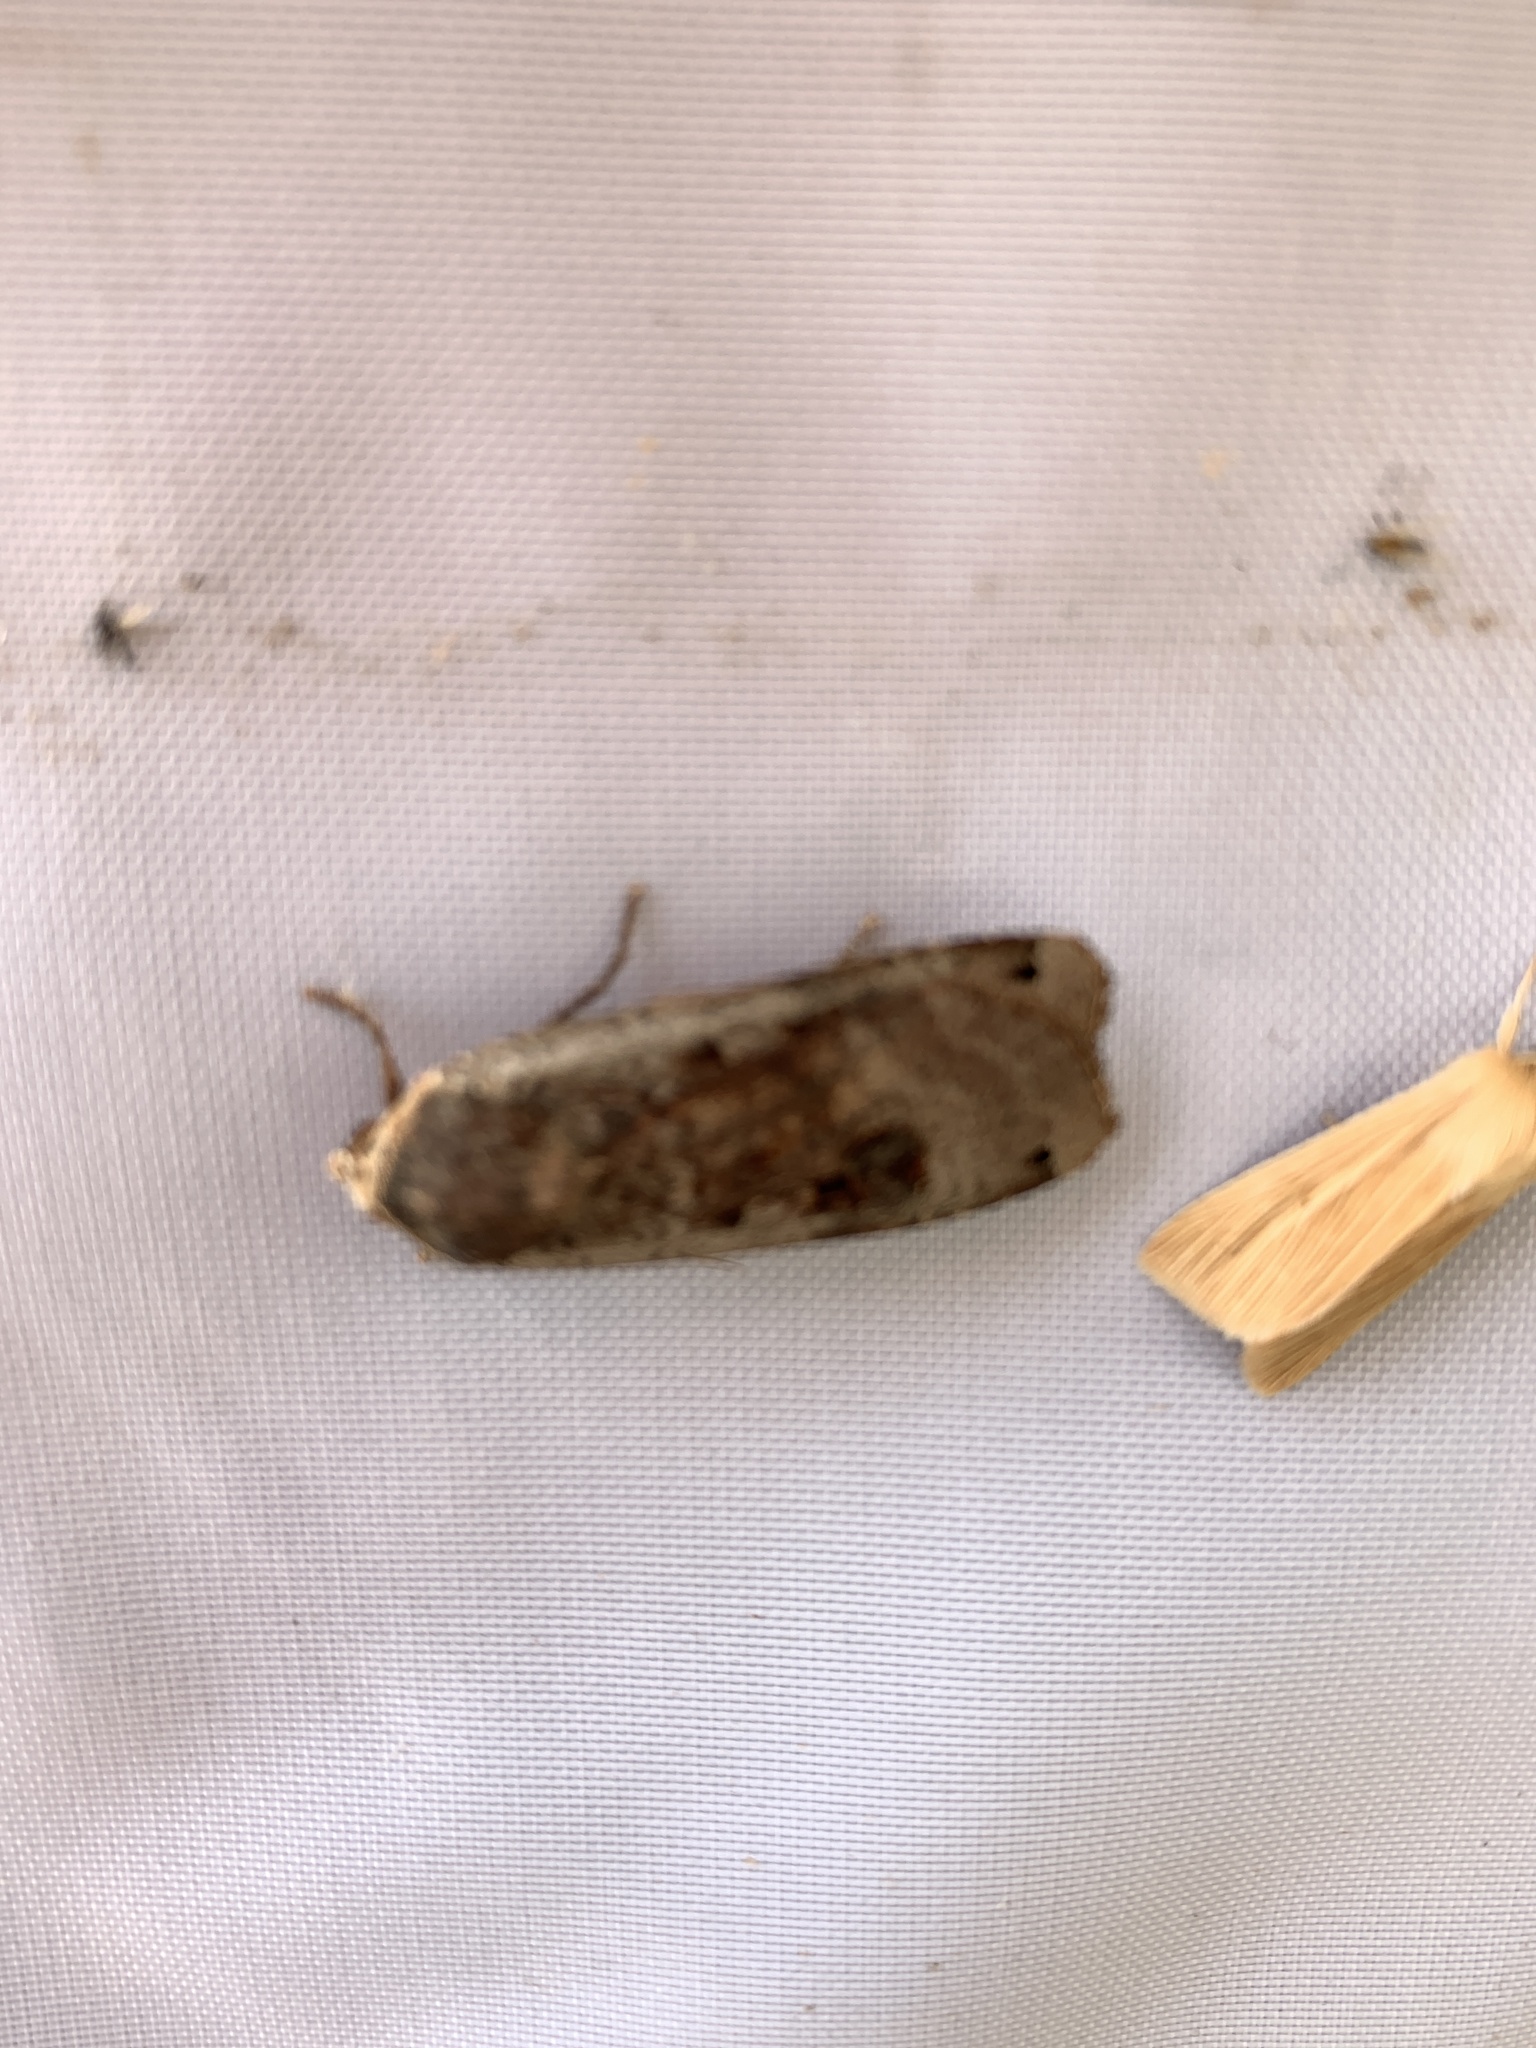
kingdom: Animalia
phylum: Arthropoda
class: Insecta
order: Lepidoptera
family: Noctuidae
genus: Noctua
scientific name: Noctua pronuba
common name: Large yellow underwing
